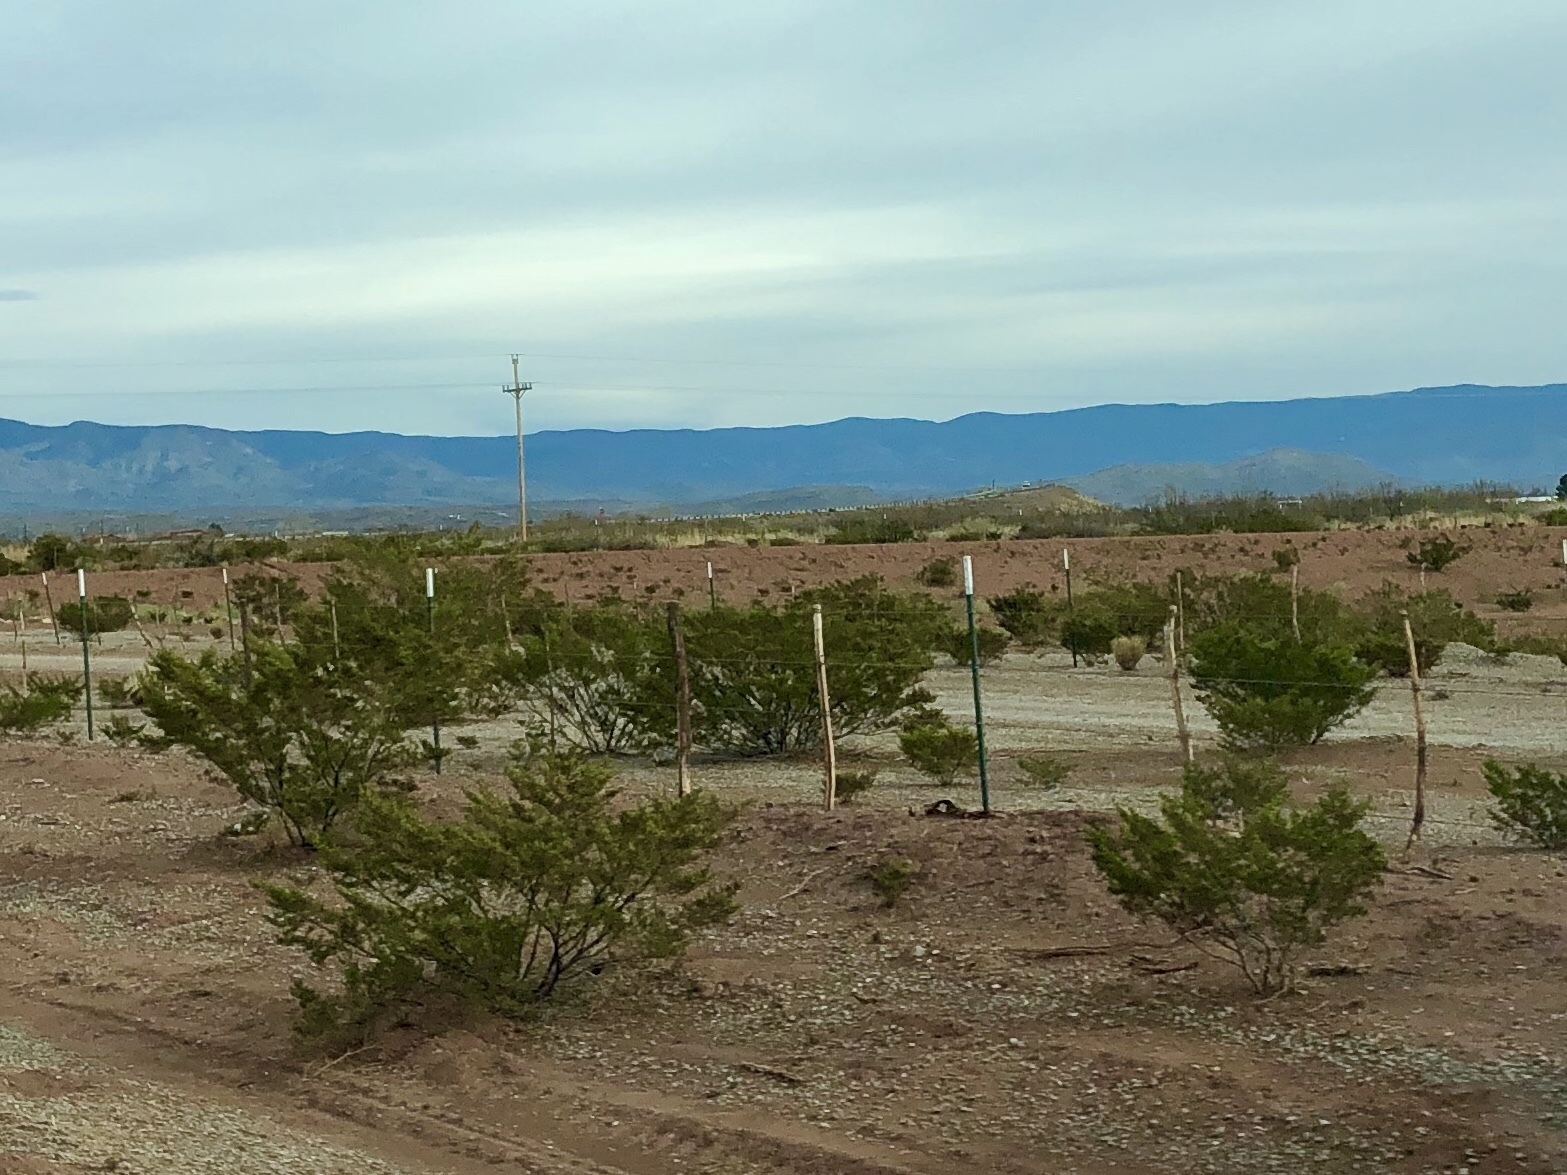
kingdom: Plantae
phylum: Tracheophyta
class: Magnoliopsida
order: Zygophyllales
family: Zygophyllaceae
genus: Larrea
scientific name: Larrea tridentata
